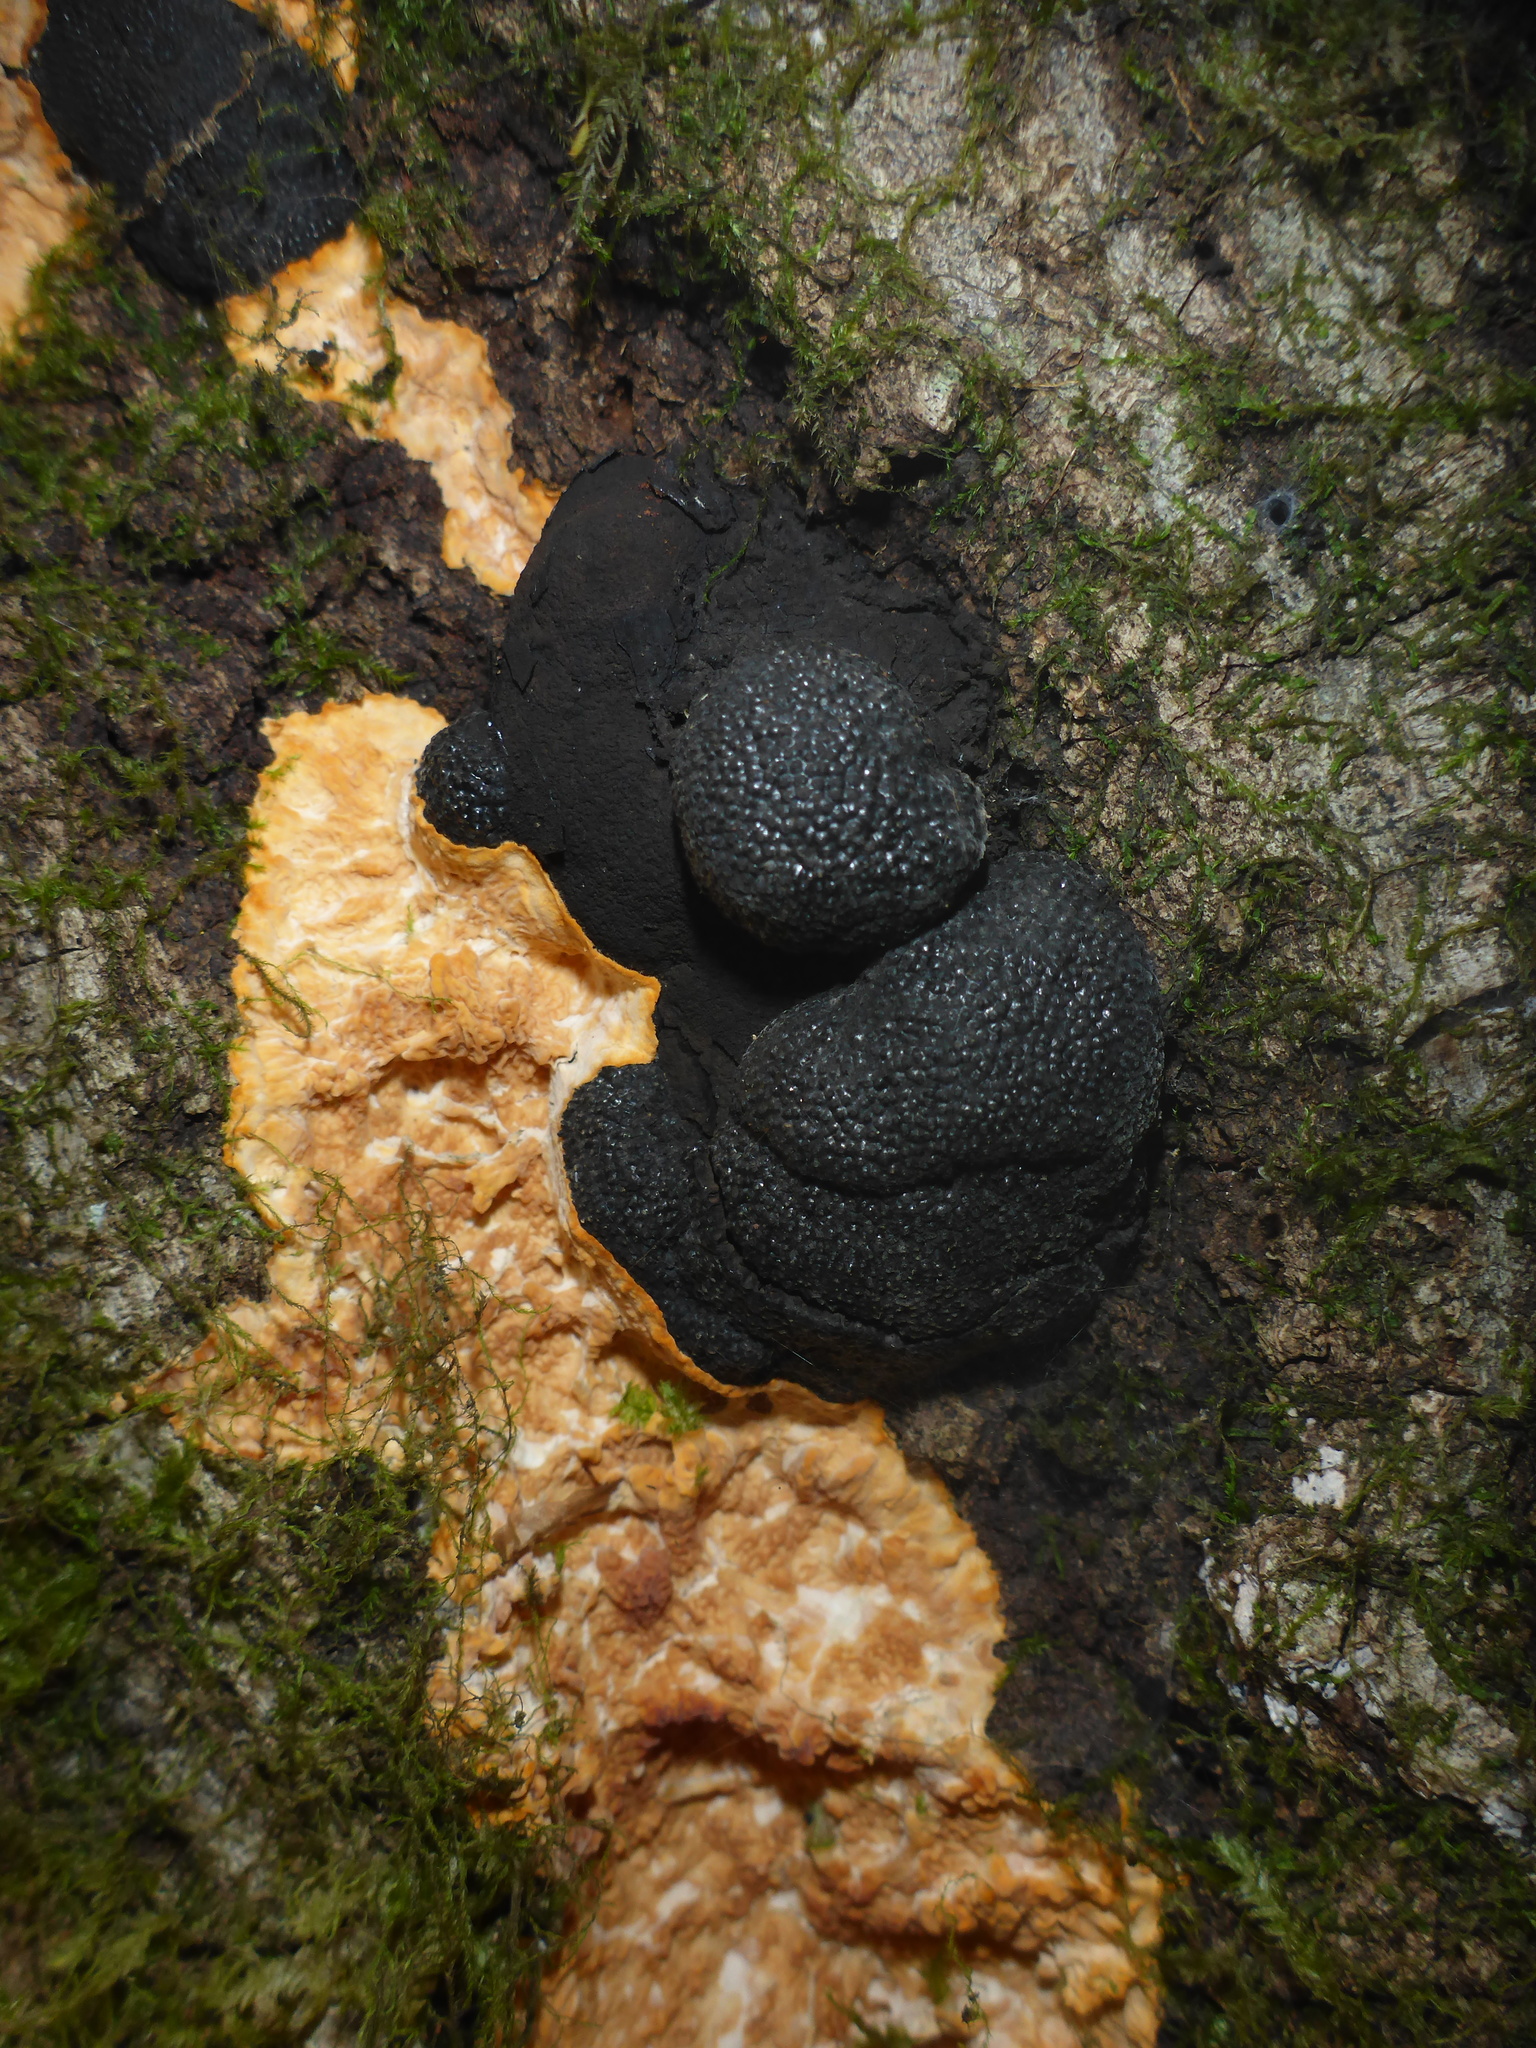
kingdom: Fungi
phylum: Ascomycota
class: Sordariomycetes
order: Xylariales
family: Hypoxylaceae
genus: Annulohypoxylon
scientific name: Annulohypoxylon thouarsianum
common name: Cramp balls
